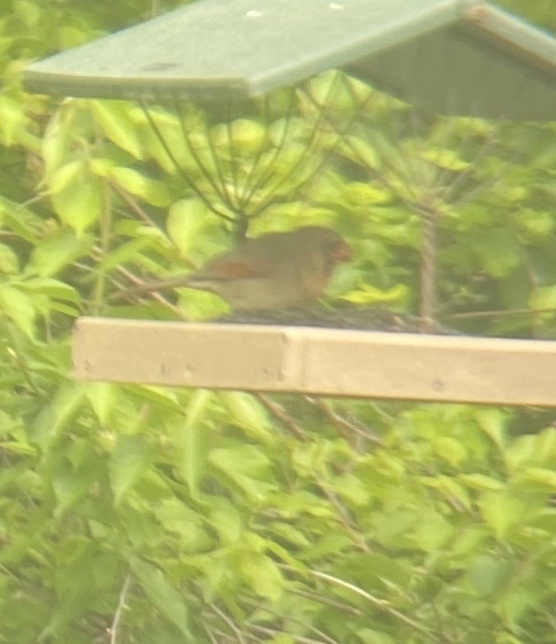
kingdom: Animalia
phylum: Chordata
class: Aves
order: Passeriformes
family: Cardinalidae
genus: Cardinalis
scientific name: Cardinalis cardinalis
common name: Northern cardinal
